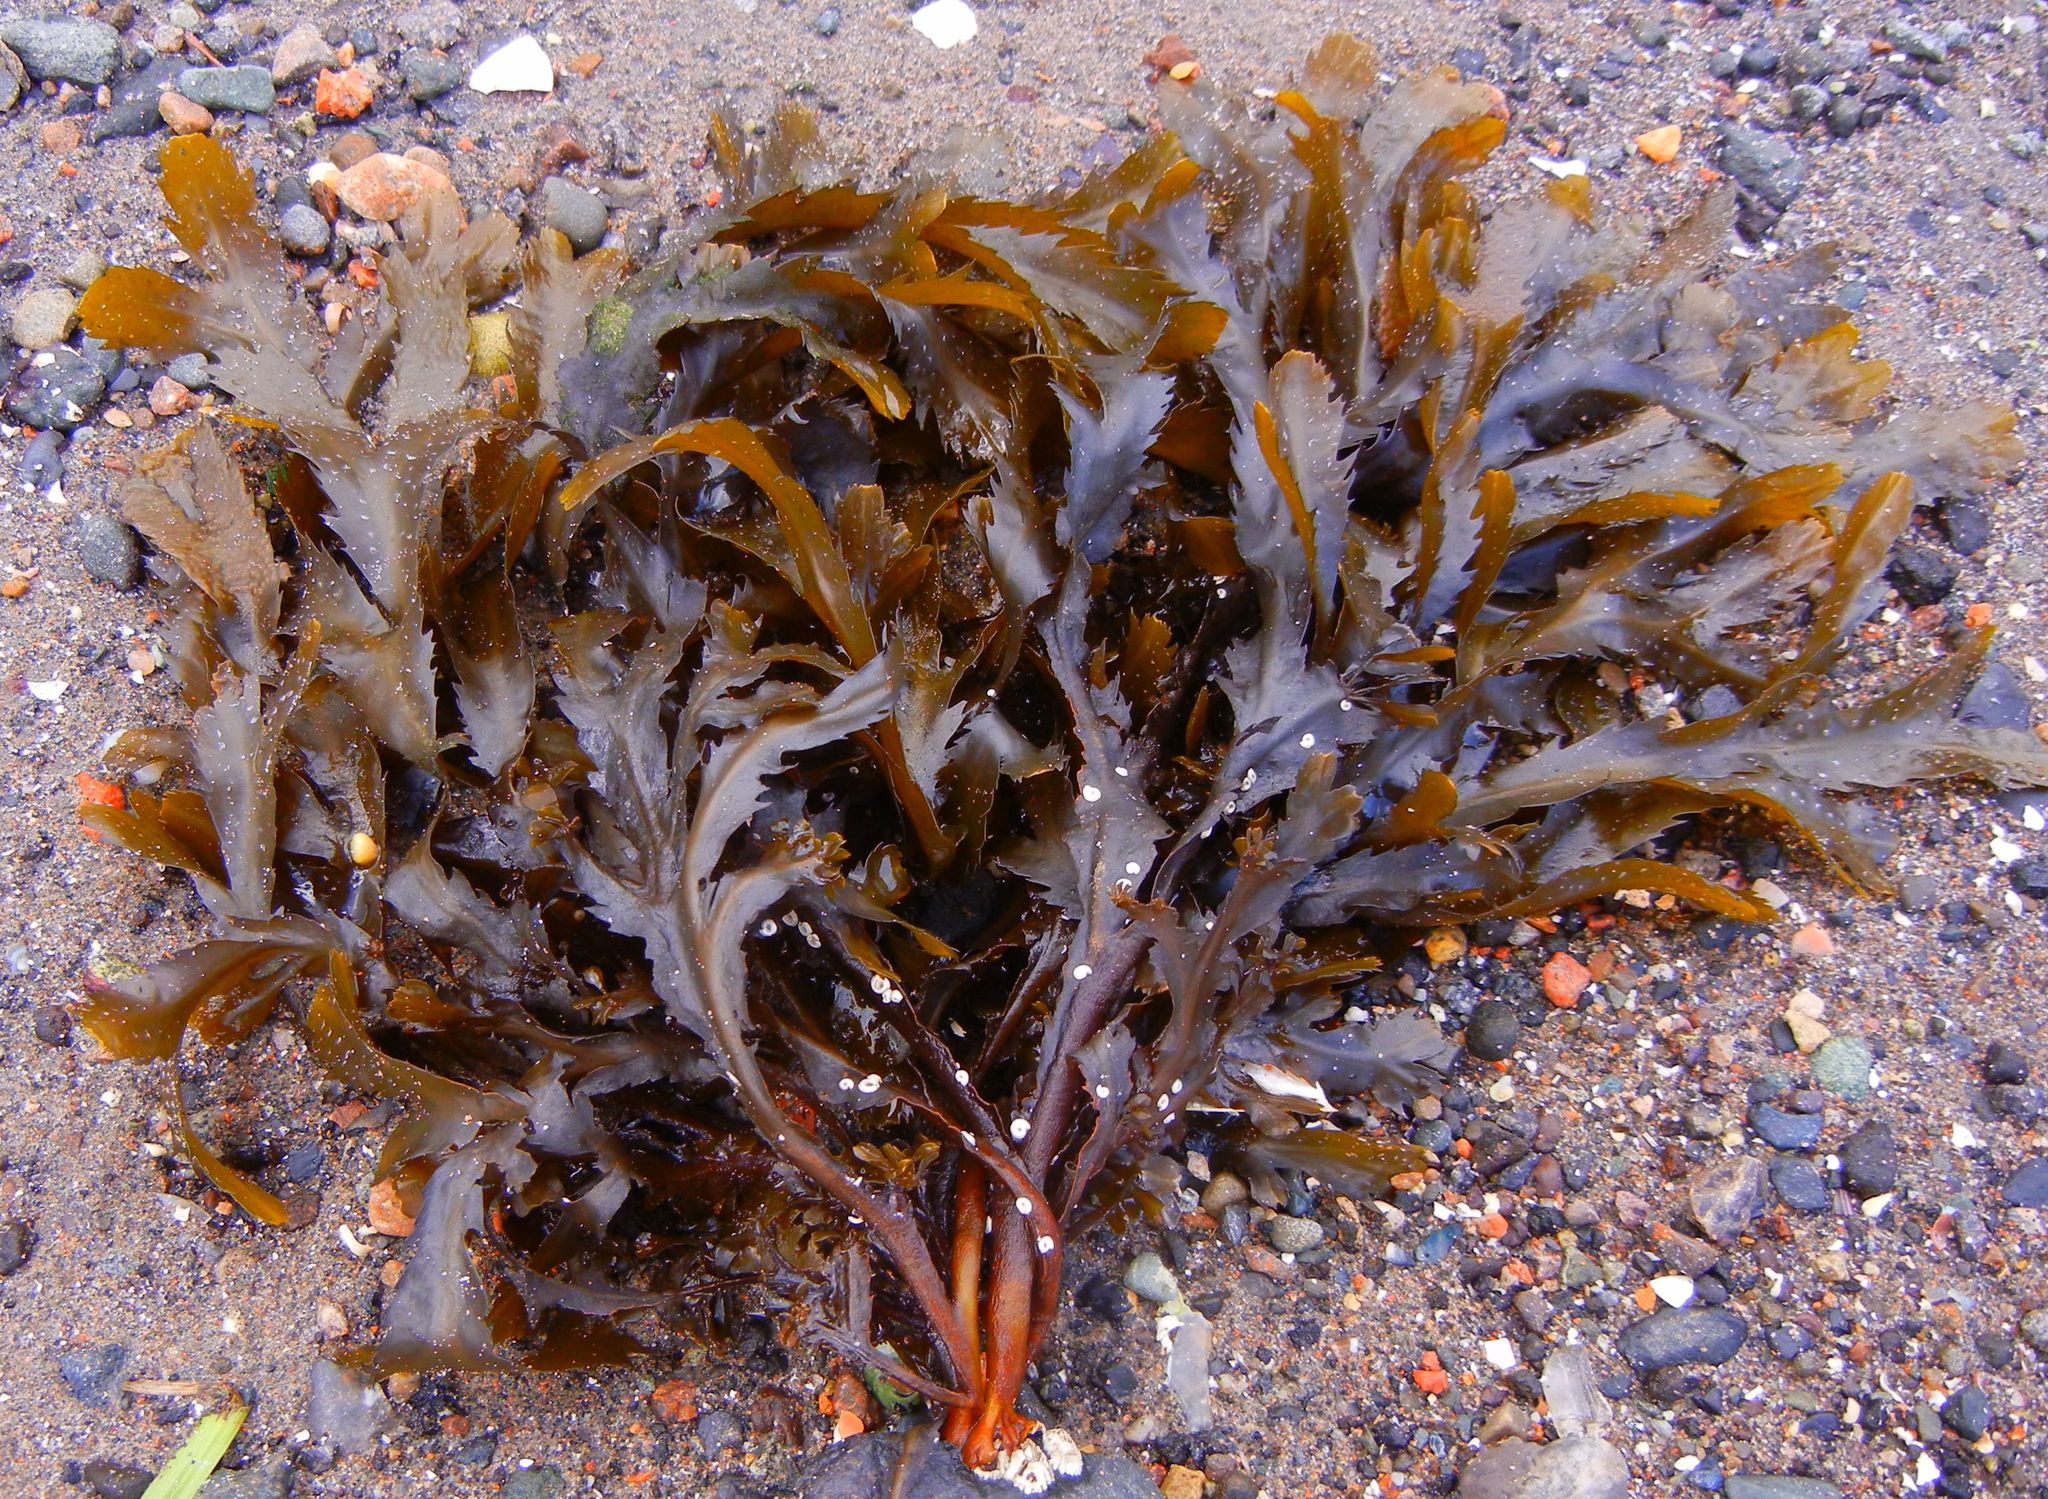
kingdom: Chromista
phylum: Ochrophyta
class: Phaeophyceae
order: Fucales
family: Fucaceae
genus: Fucus
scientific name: Fucus serratus
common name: Toothed wrack
